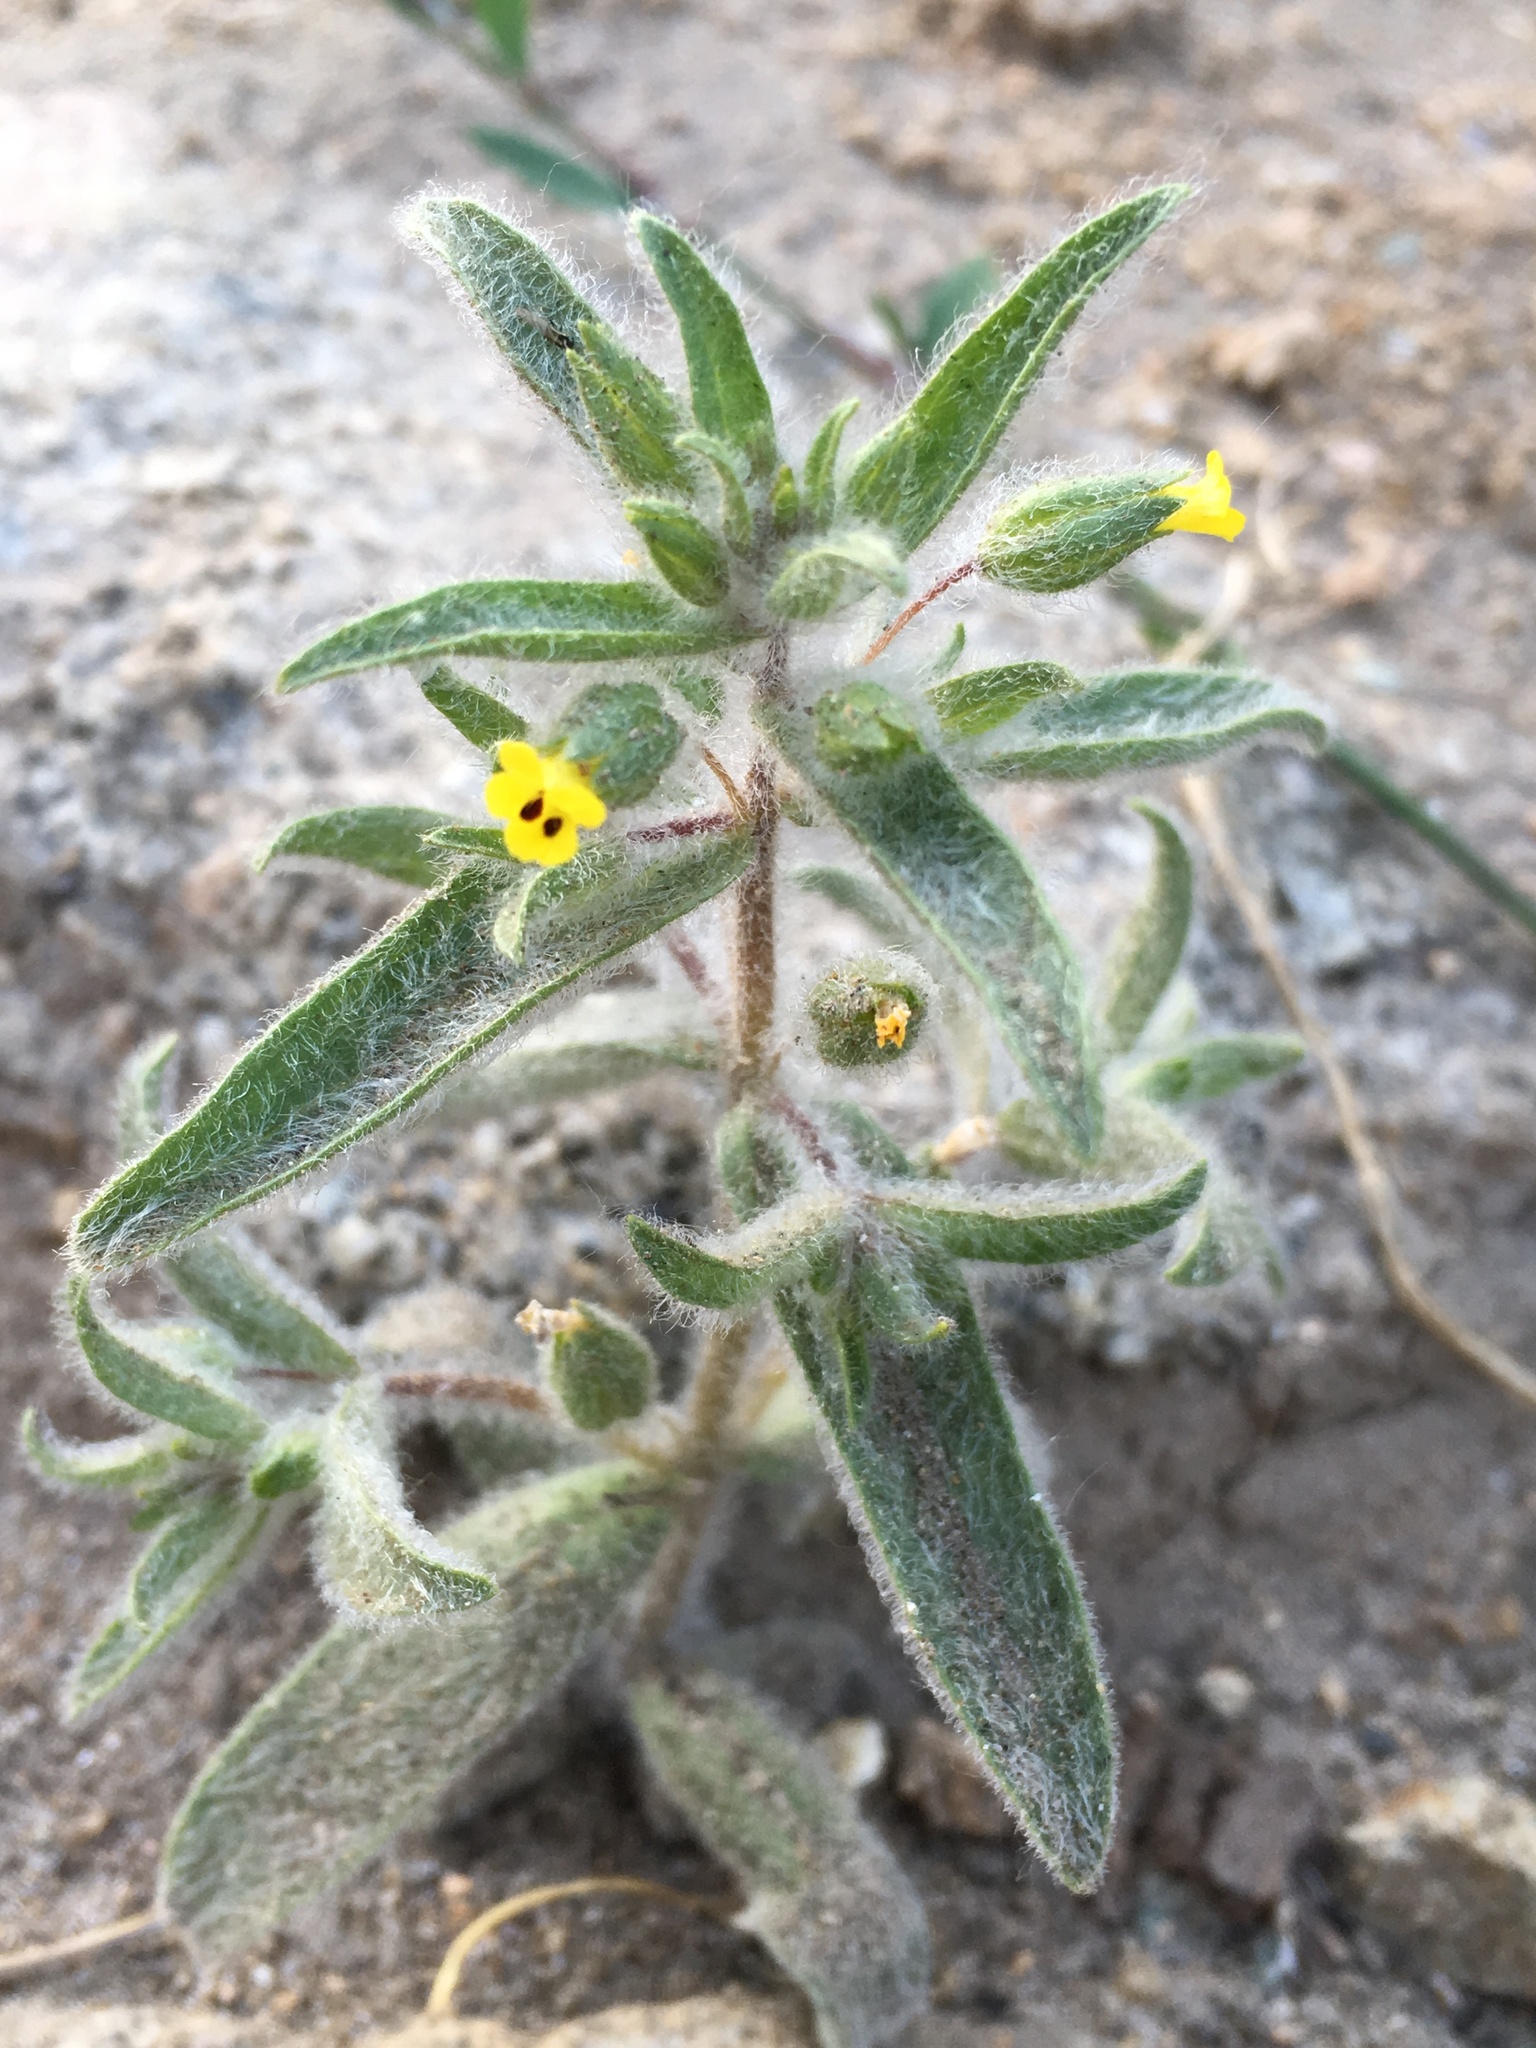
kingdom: Plantae
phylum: Tracheophyta
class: Magnoliopsida
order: Lamiales
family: Phrymaceae
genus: Mimetanthe
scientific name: Mimetanthe pilosa
